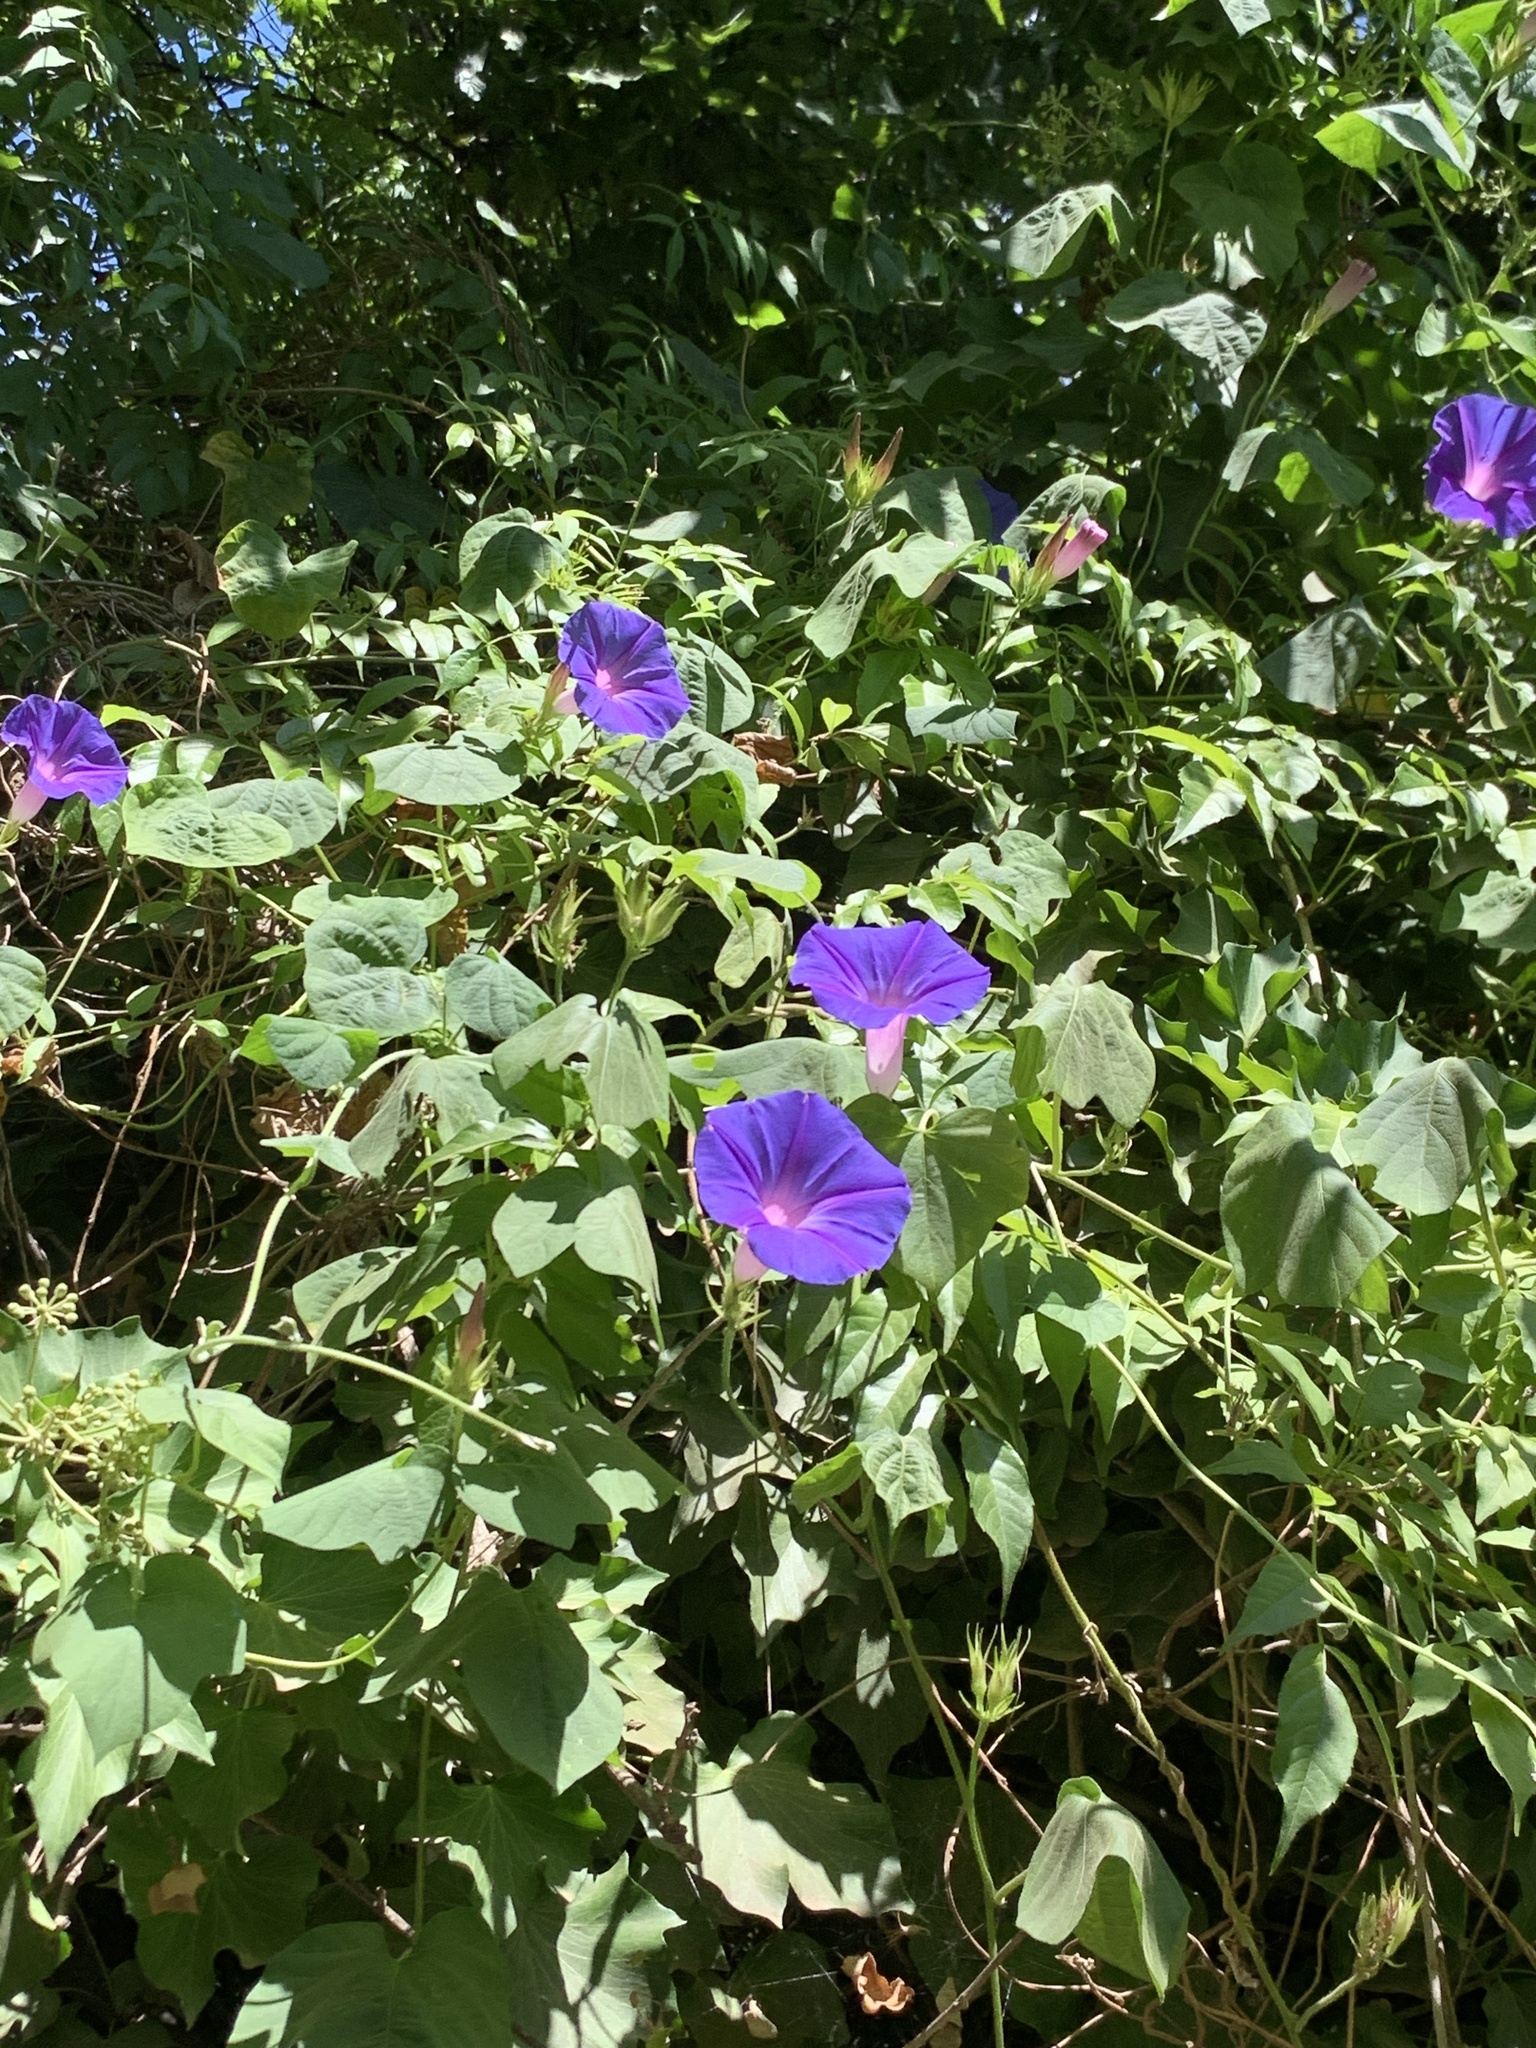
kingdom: Plantae
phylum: Tracheophyta
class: Magnoliopsida
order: Solanales
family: Convolvulaceae
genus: Ipomoea
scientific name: Ipomoea indica
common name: Blue dawnflower
